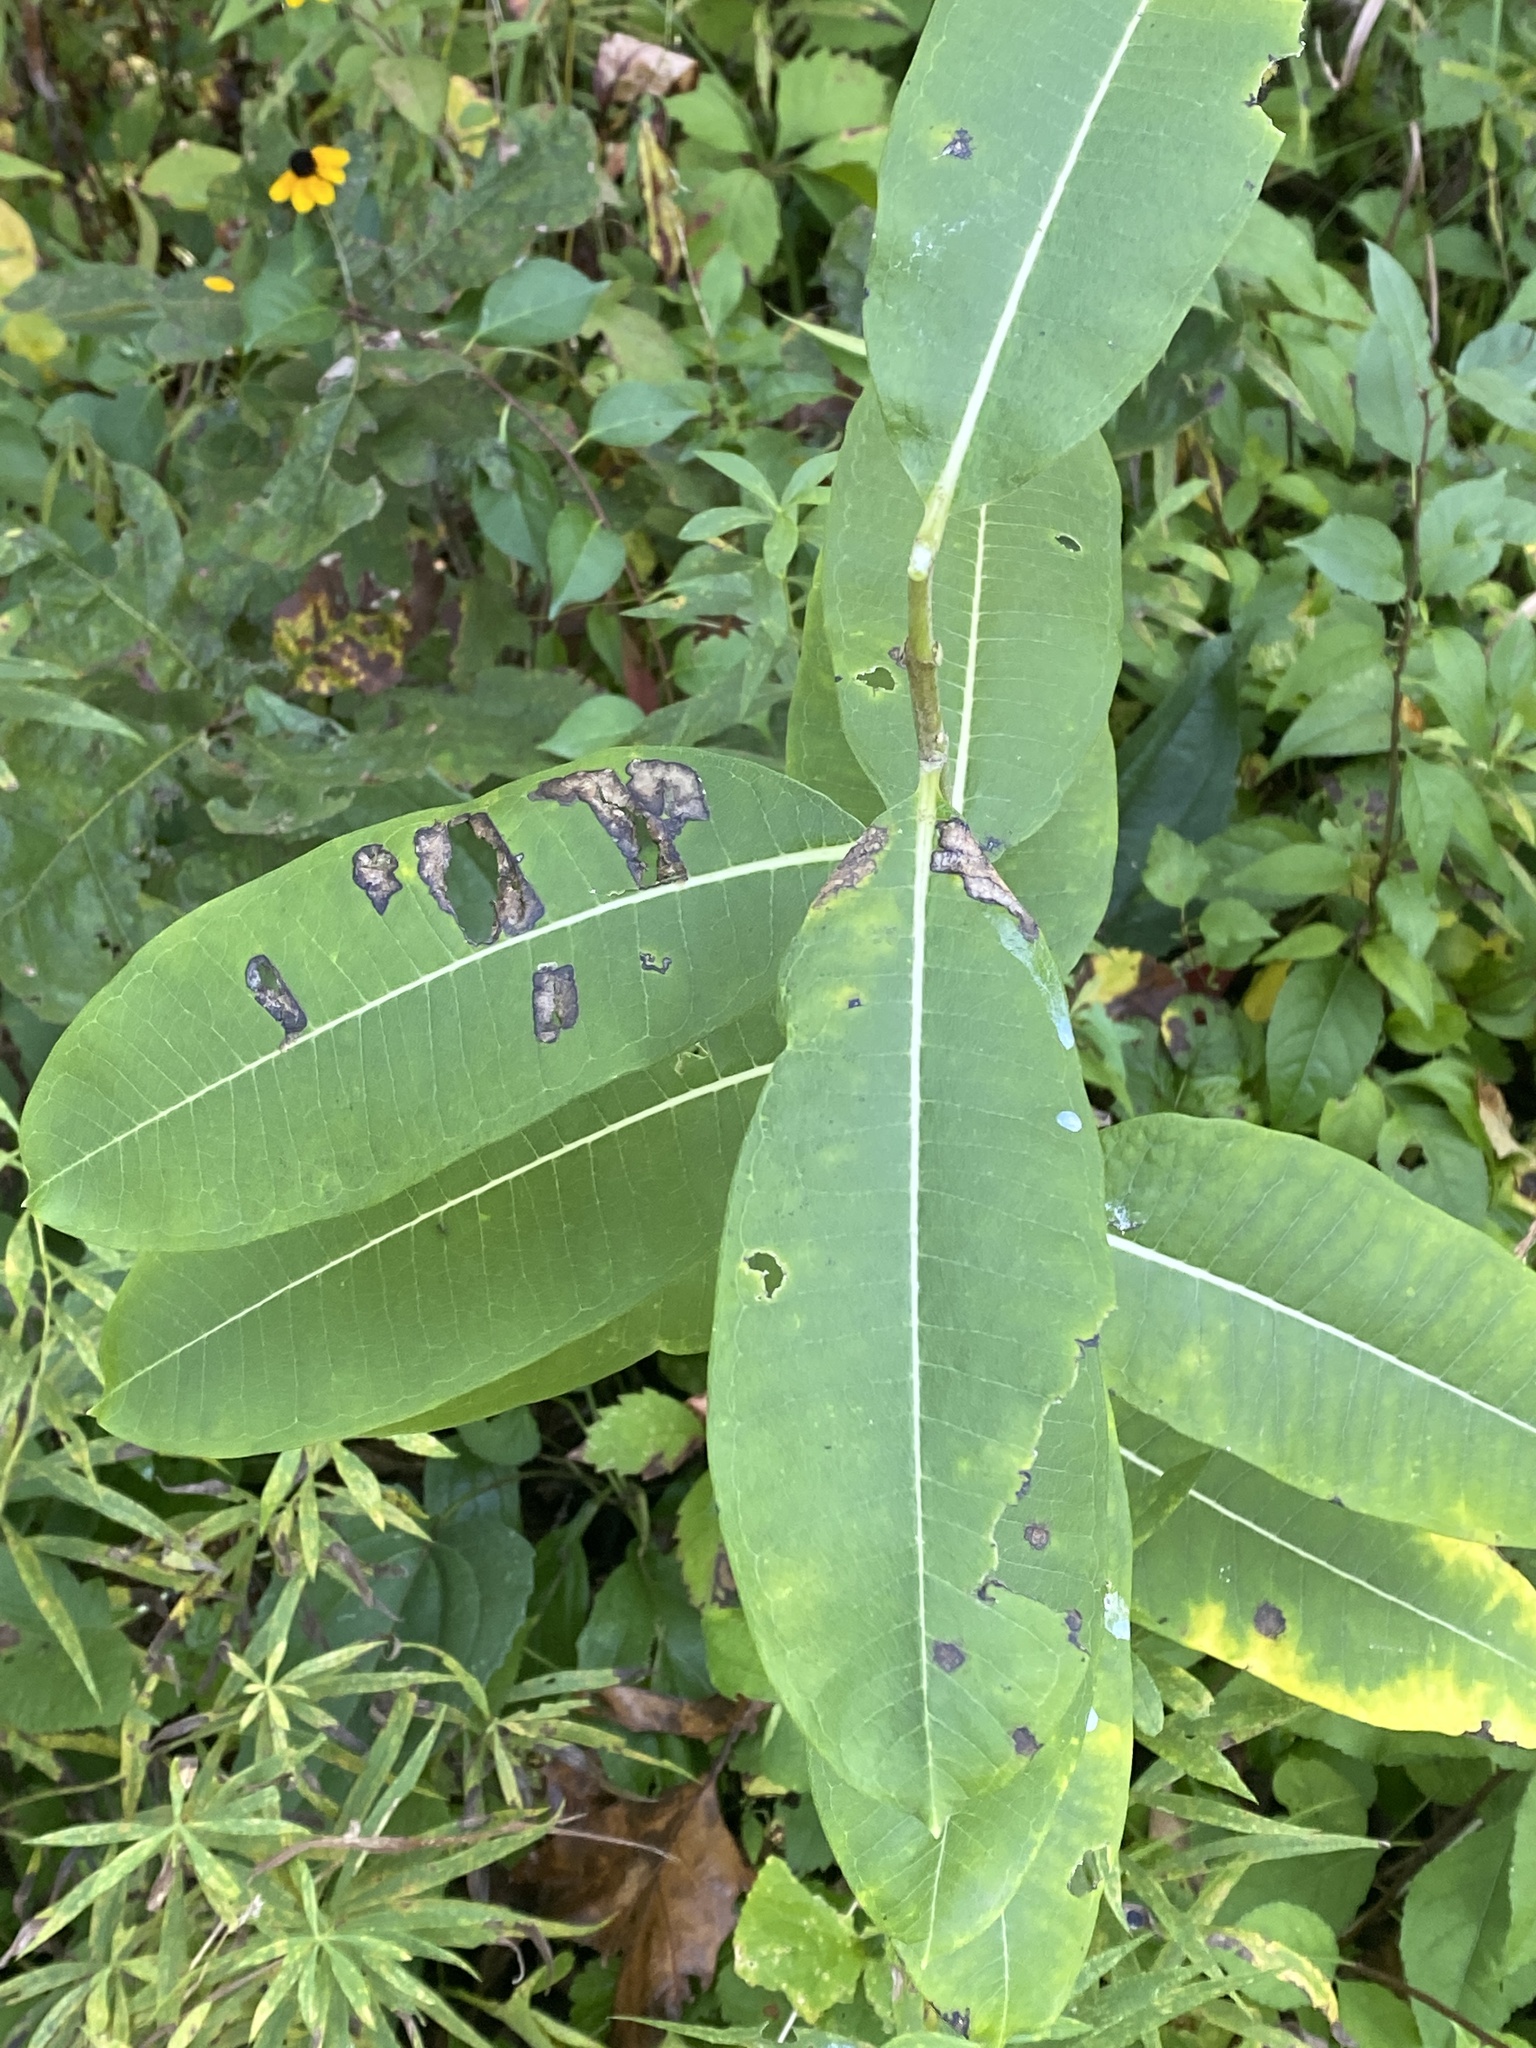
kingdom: Plantae
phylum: Tracheophyta
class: Magnoliopsida
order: Gentianales
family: Apocynaceae
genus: Asclepias
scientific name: Asclepias syriaca
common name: Common milkweed
